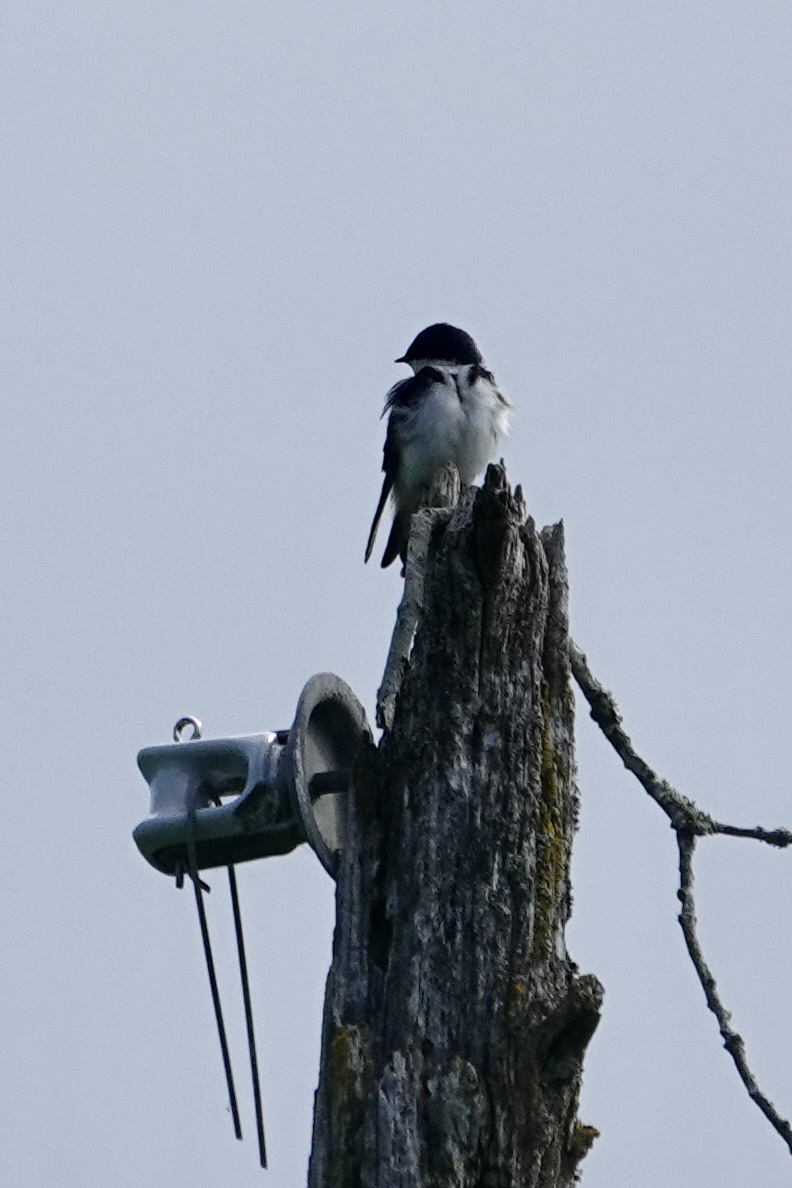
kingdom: Animalia
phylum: Chordata
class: Aves
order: Passeriformes
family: Hirundinidae
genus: Tachycineta
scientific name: Tachycineta bicolor
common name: Tree swallow
